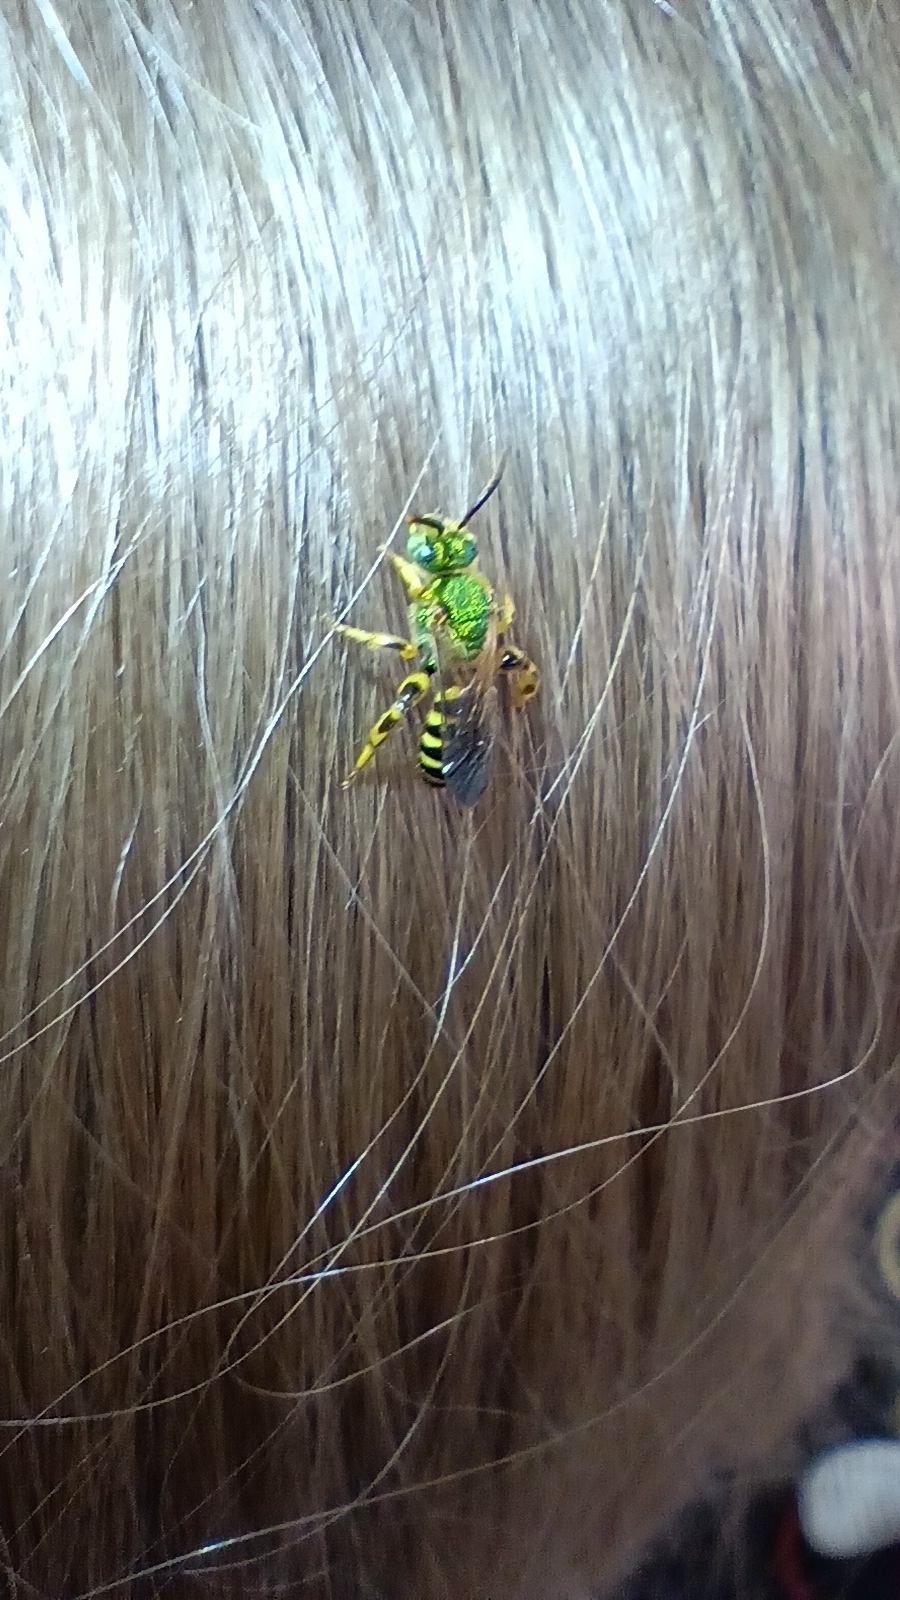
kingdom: Animalia
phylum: Arthropoda
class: Insecta
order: Hymenoptera
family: Halictidae
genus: Agapostemon
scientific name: Agapostemon splendens
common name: Brown-winged striped sweat bee
